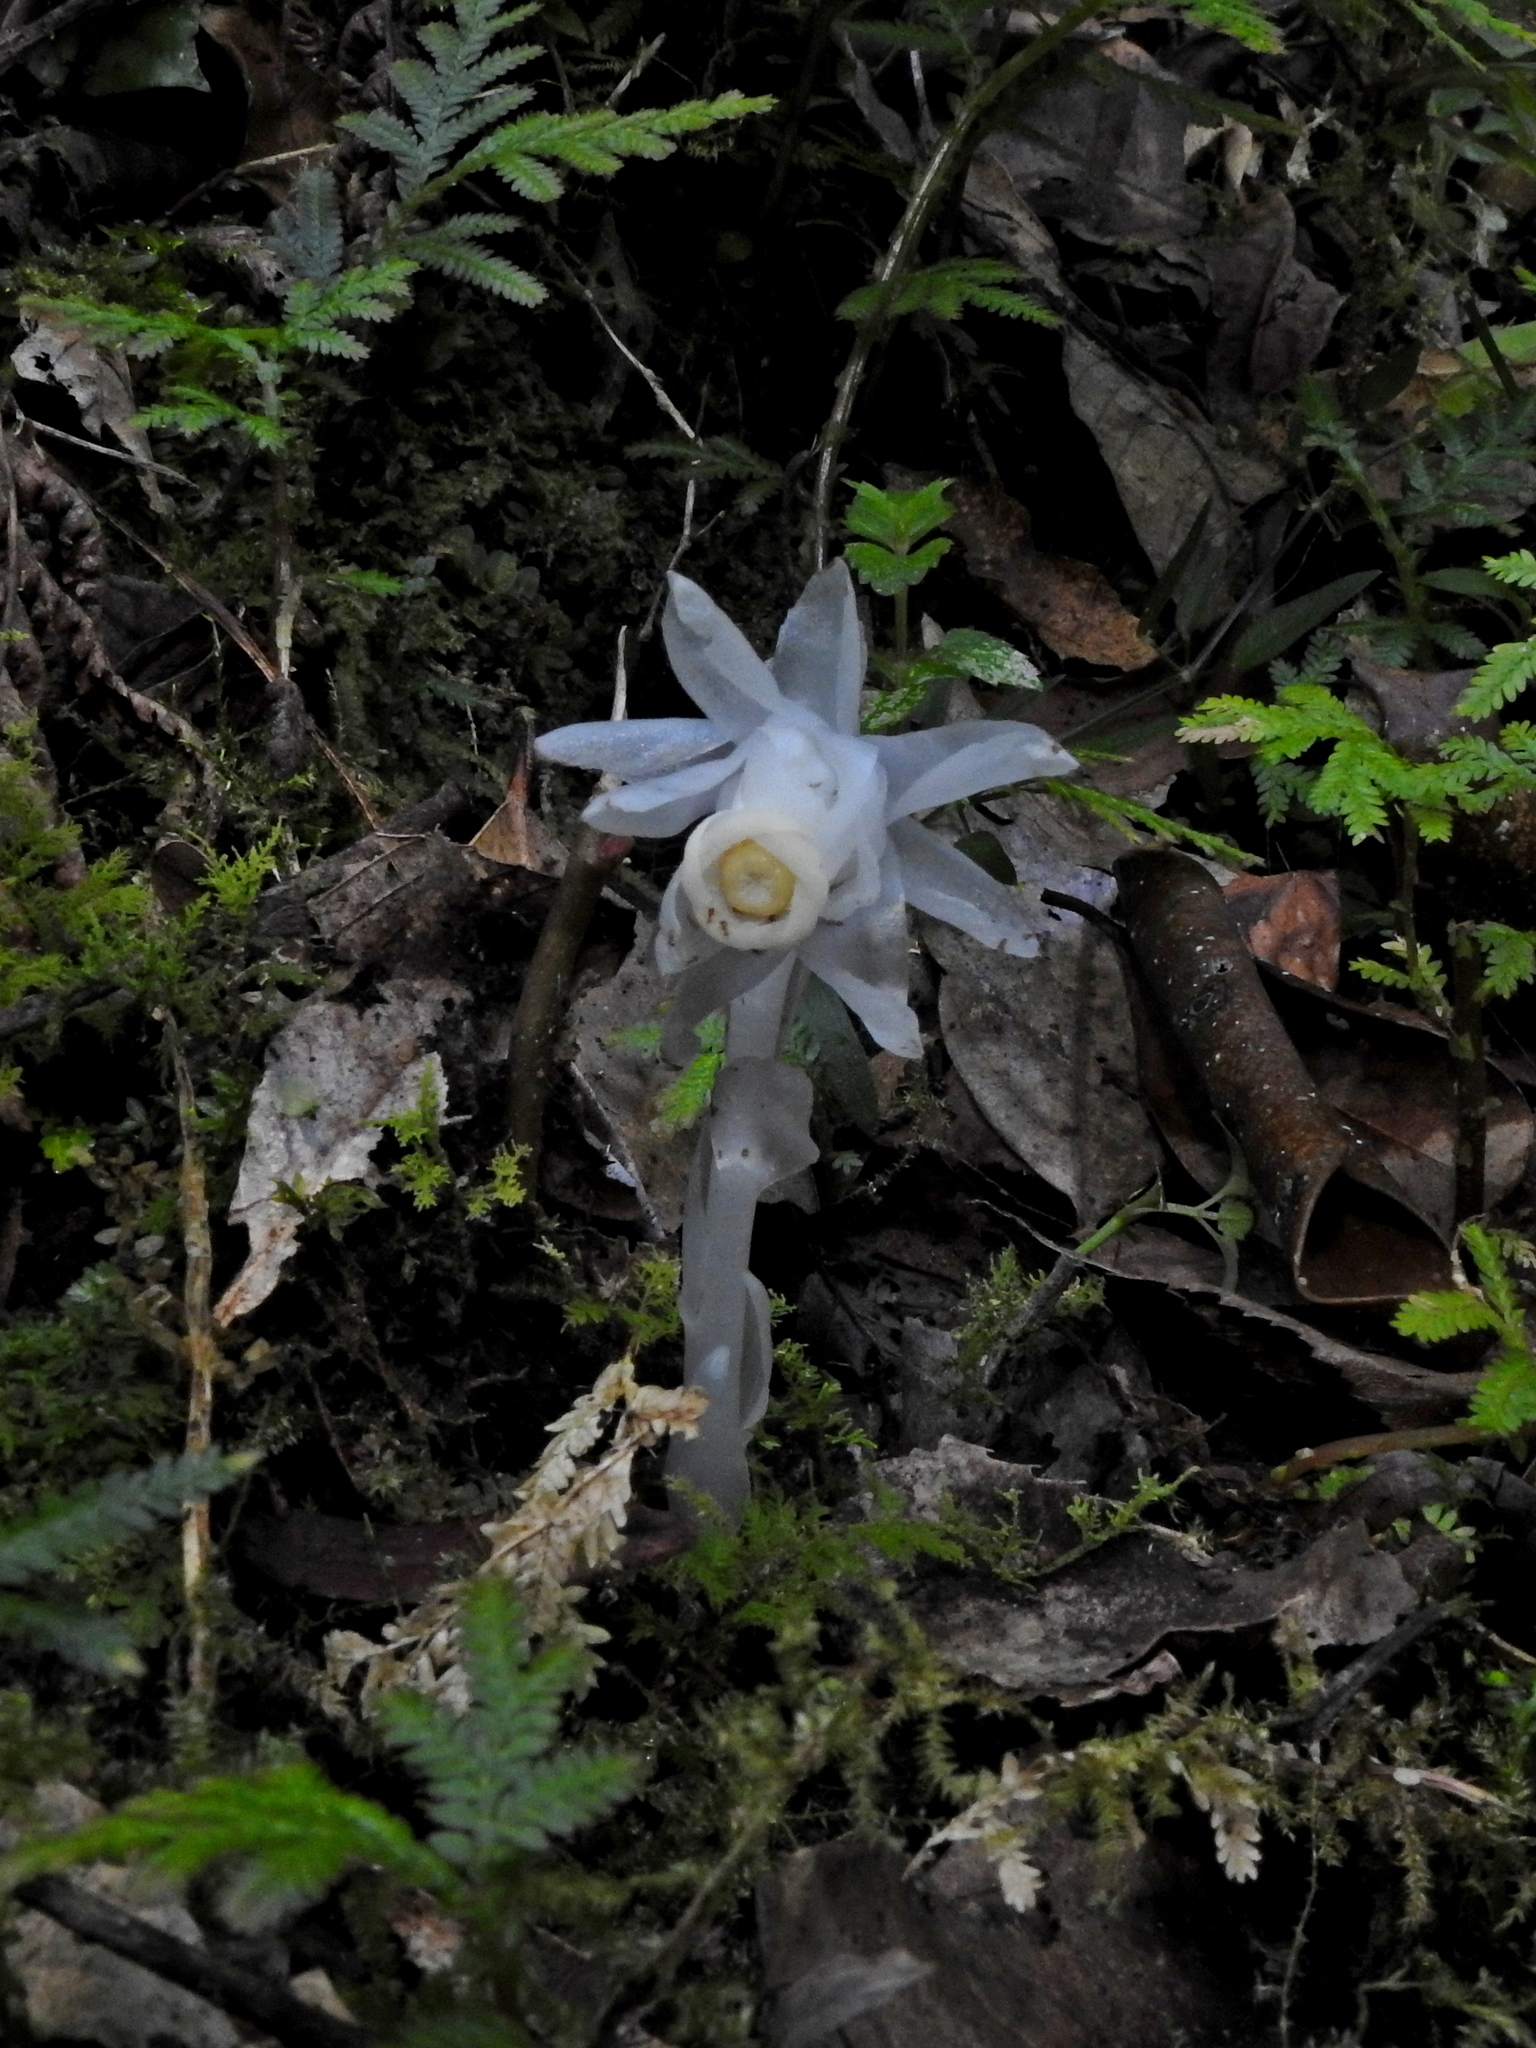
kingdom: Plantae
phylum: Tracheophyta
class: Magnoliopsida
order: Ericales
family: Ericaceae
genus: Monotropastrum
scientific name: Monotropastrum humile
